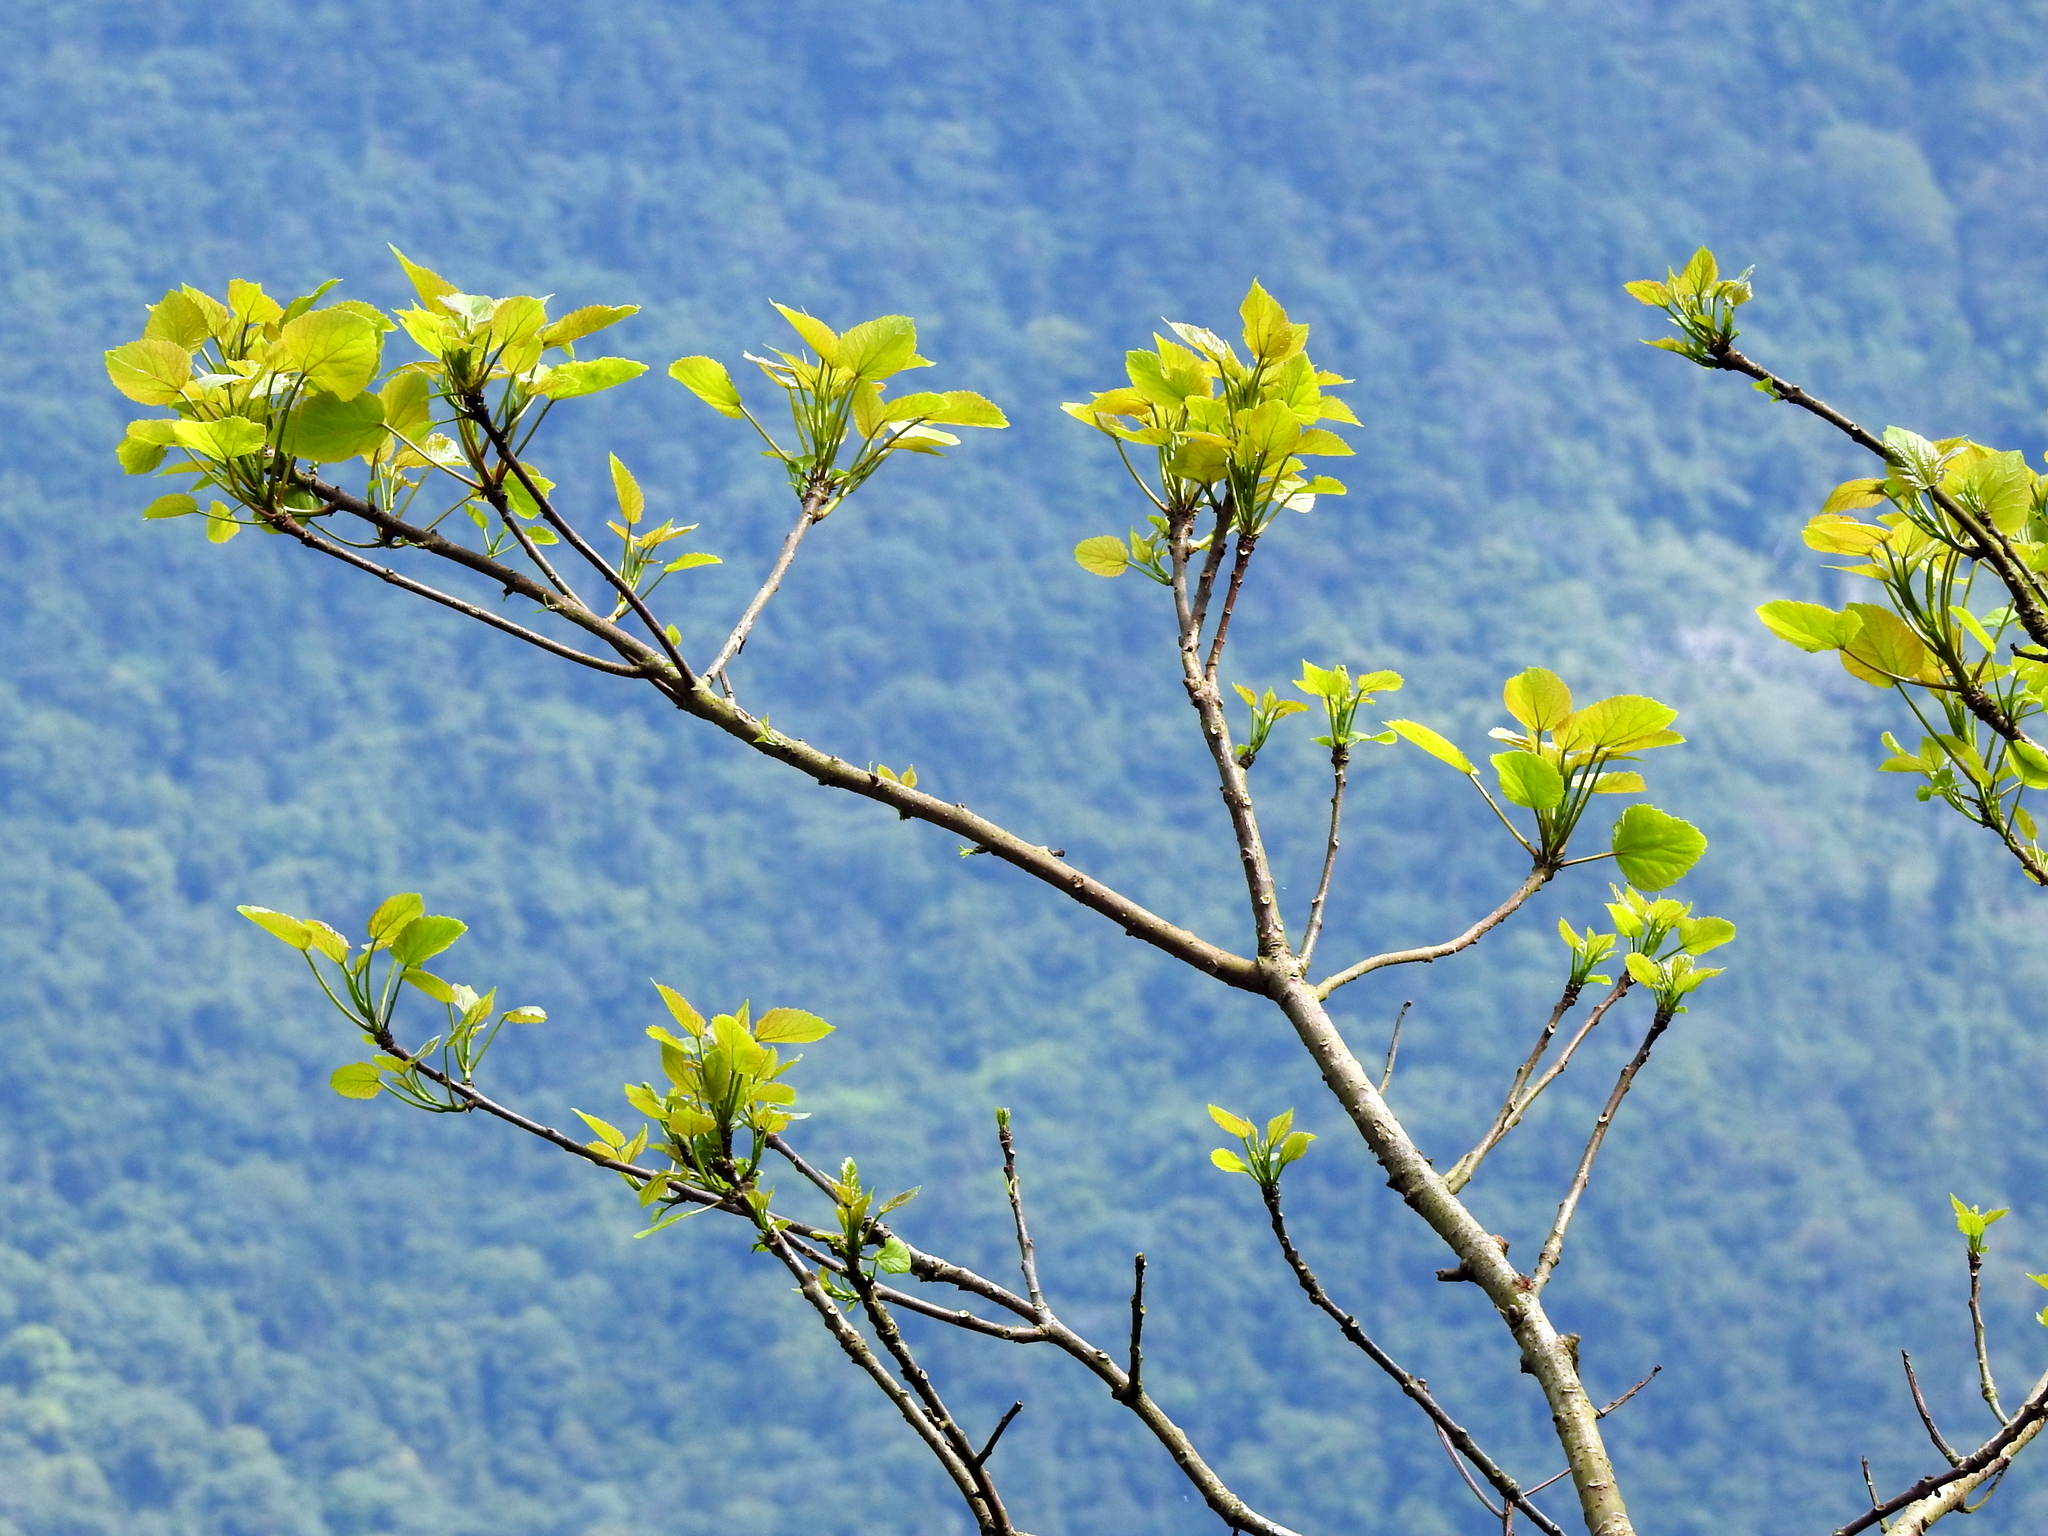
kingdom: Plantae
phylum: Tracheophyta
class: Magnoliopsida
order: Malpighiales
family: Salicaceae
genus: Idesia
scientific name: Idesia polycarpa
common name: Idesia tree
